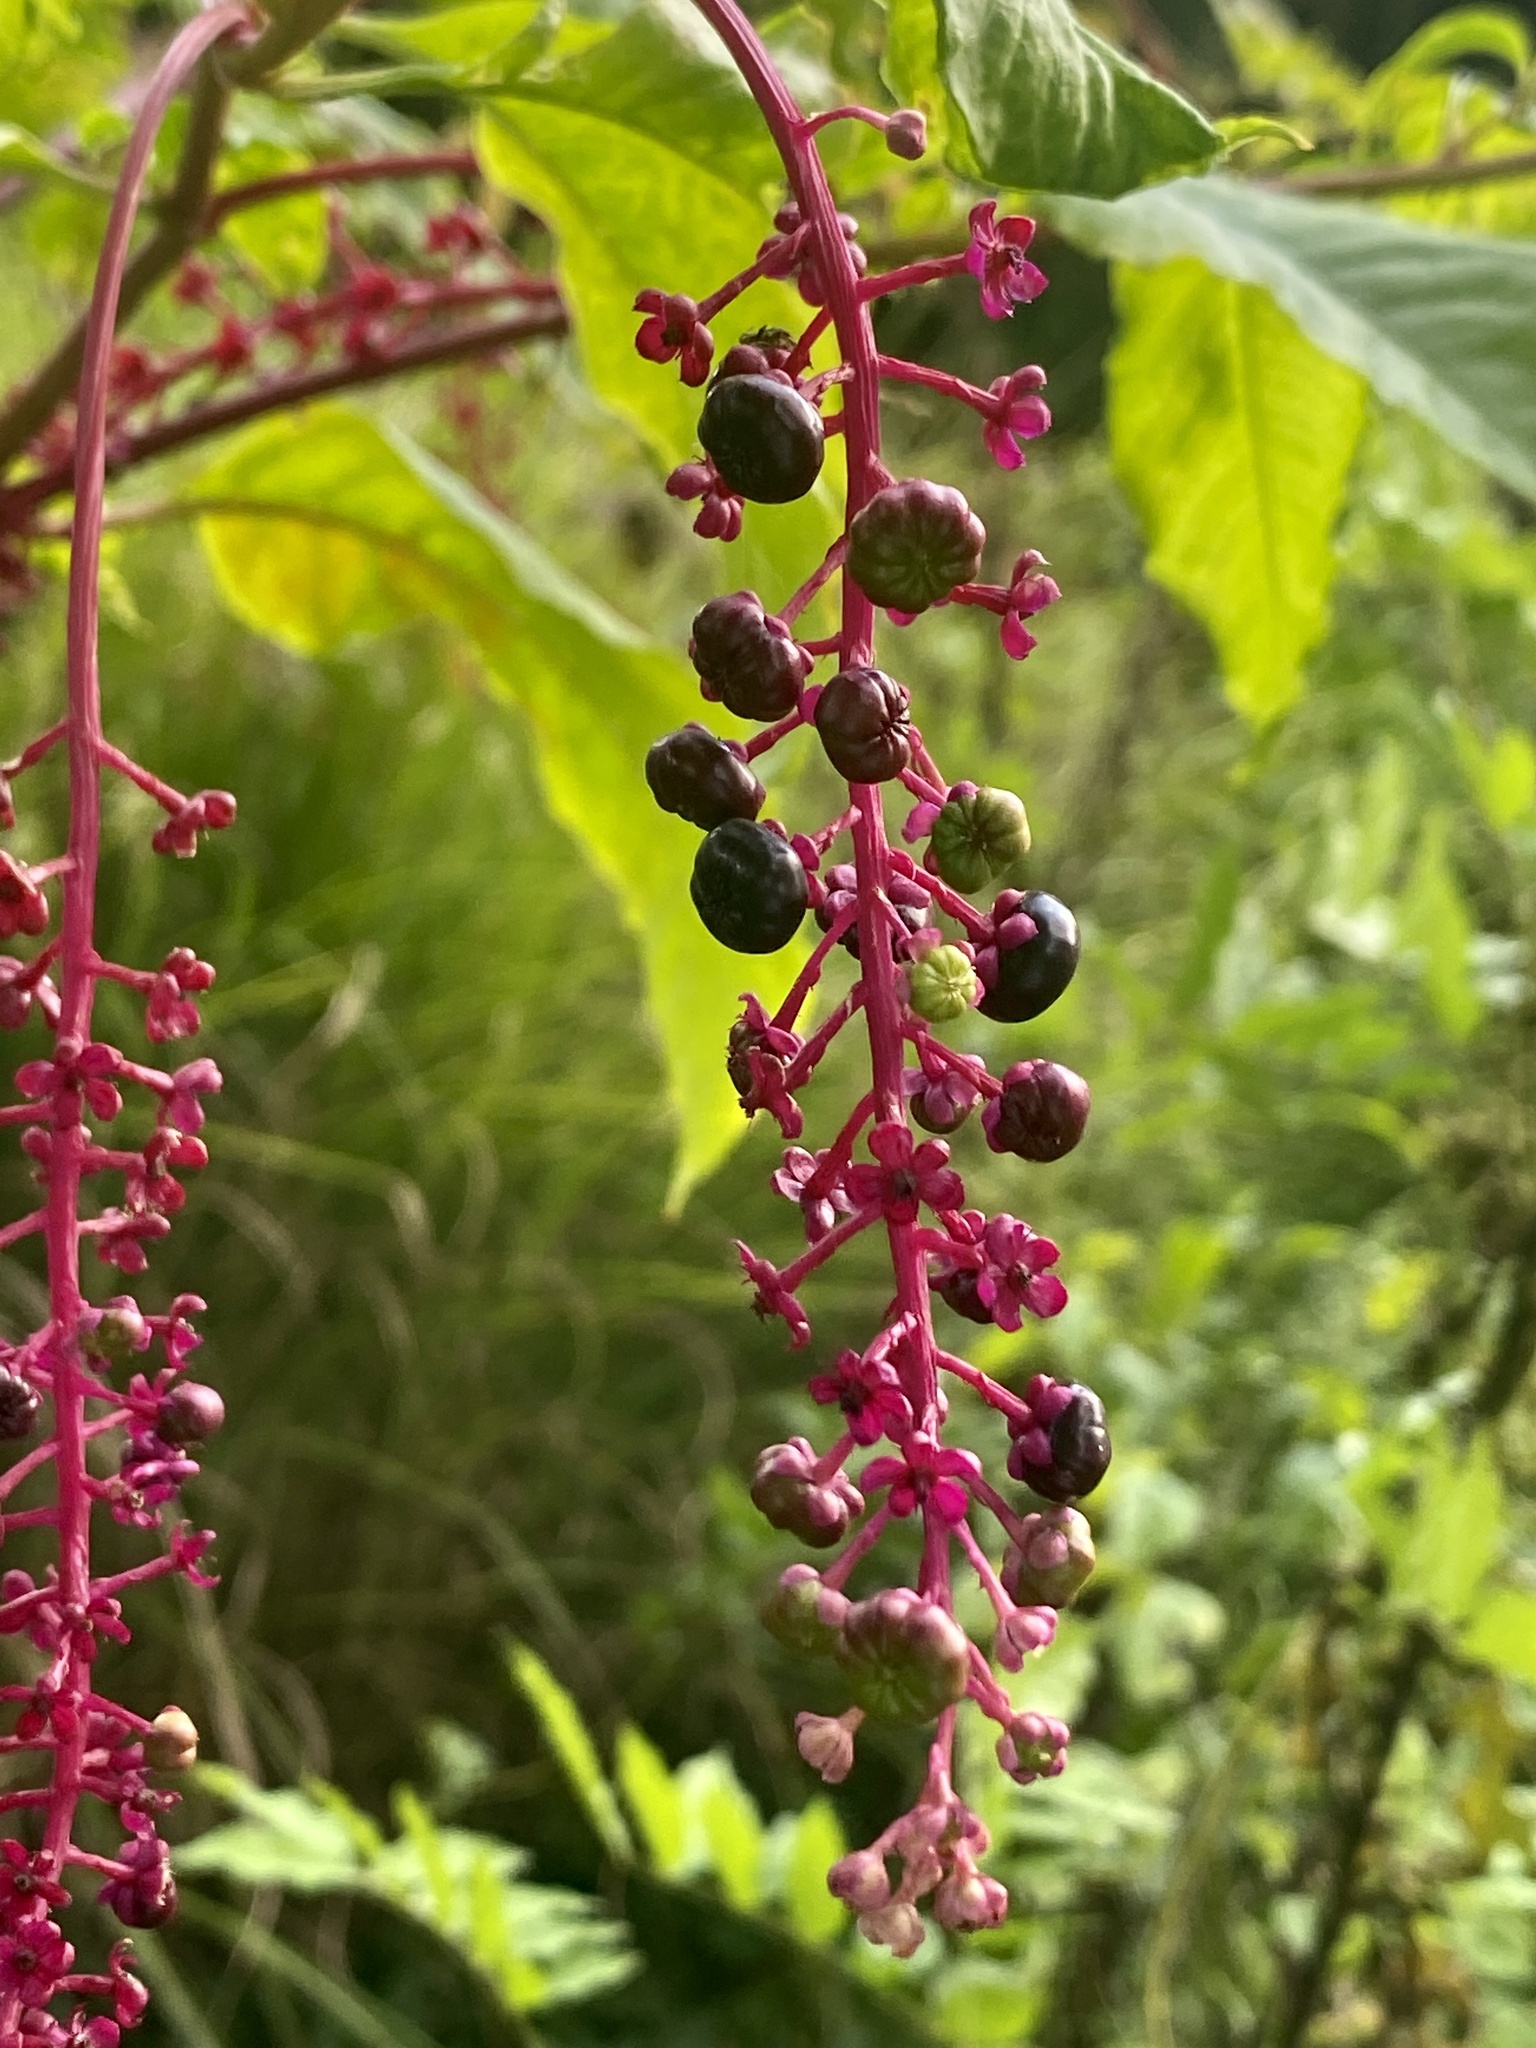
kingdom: Plantae
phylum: Tracheophyta
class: Magnoliopsida
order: Caryophyllales
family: Phytolaccaceae
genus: Phytolacca
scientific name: Phytolacca americana
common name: American pokeweed
